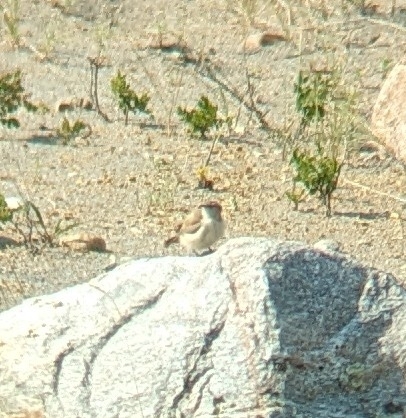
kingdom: Animalia
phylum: Chordata
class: Aves
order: Passeriformes
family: Troglodytidae
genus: Salpinctes
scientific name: Salpinctes obsoletus
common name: Rock wren
